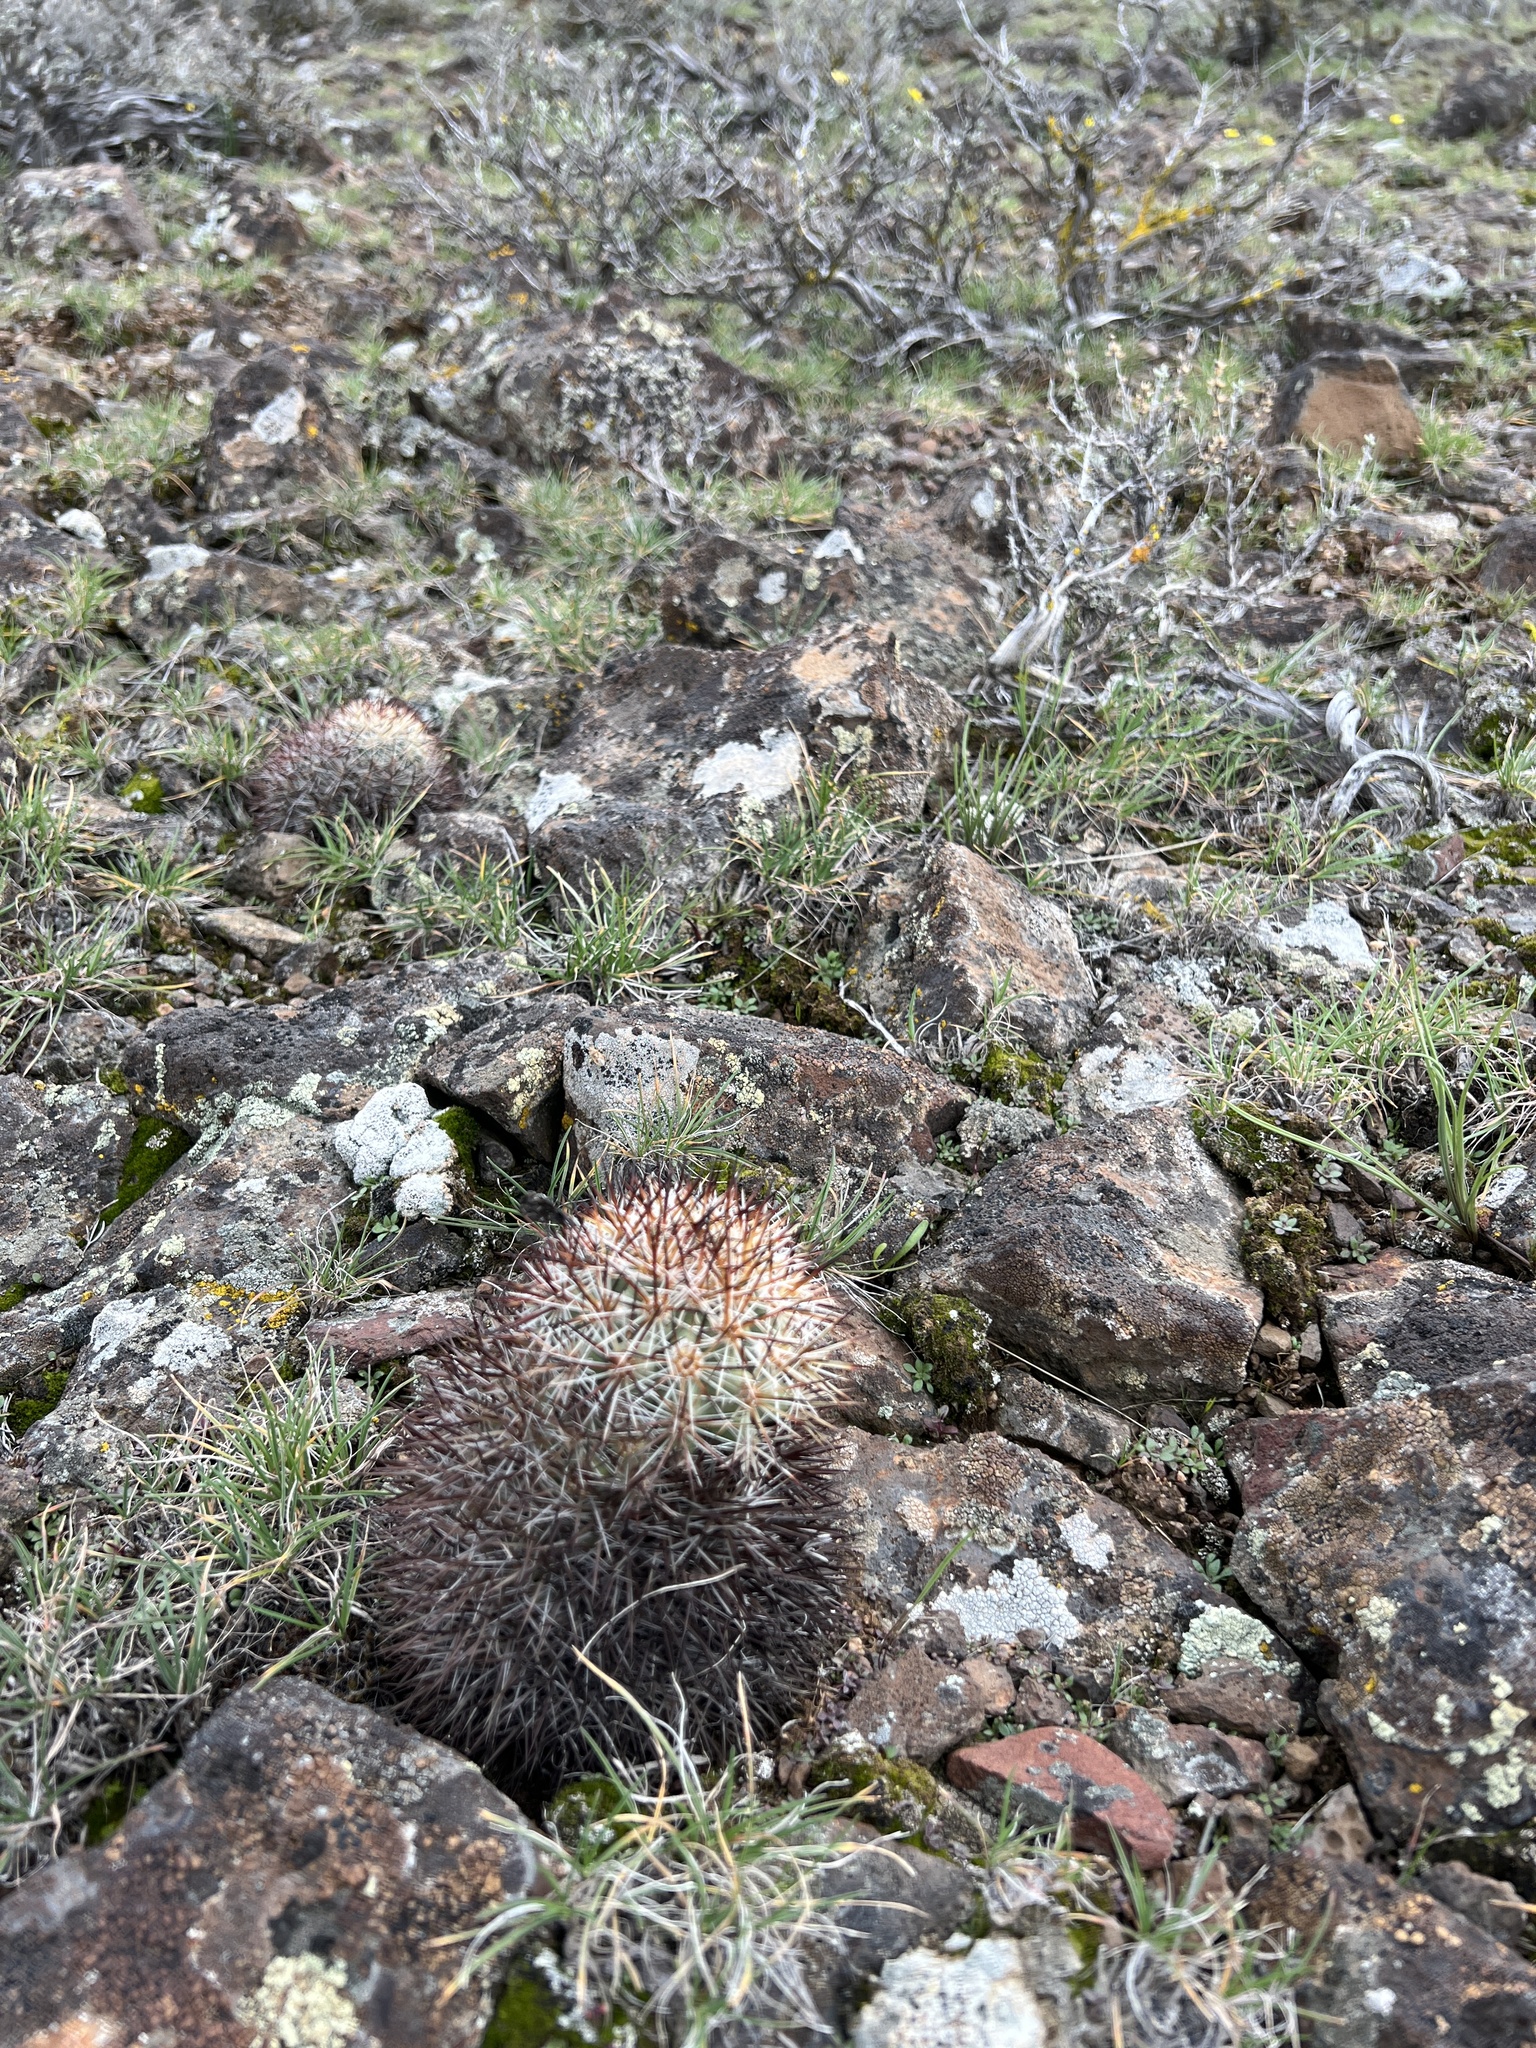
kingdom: Plantae
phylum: Tracheophyta
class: Magnoliopsida
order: Caryophyllales
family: Cactaceae
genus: Pediocactus
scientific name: Pediocactus nigrispinus
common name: Simpson's hedgehog cactus
